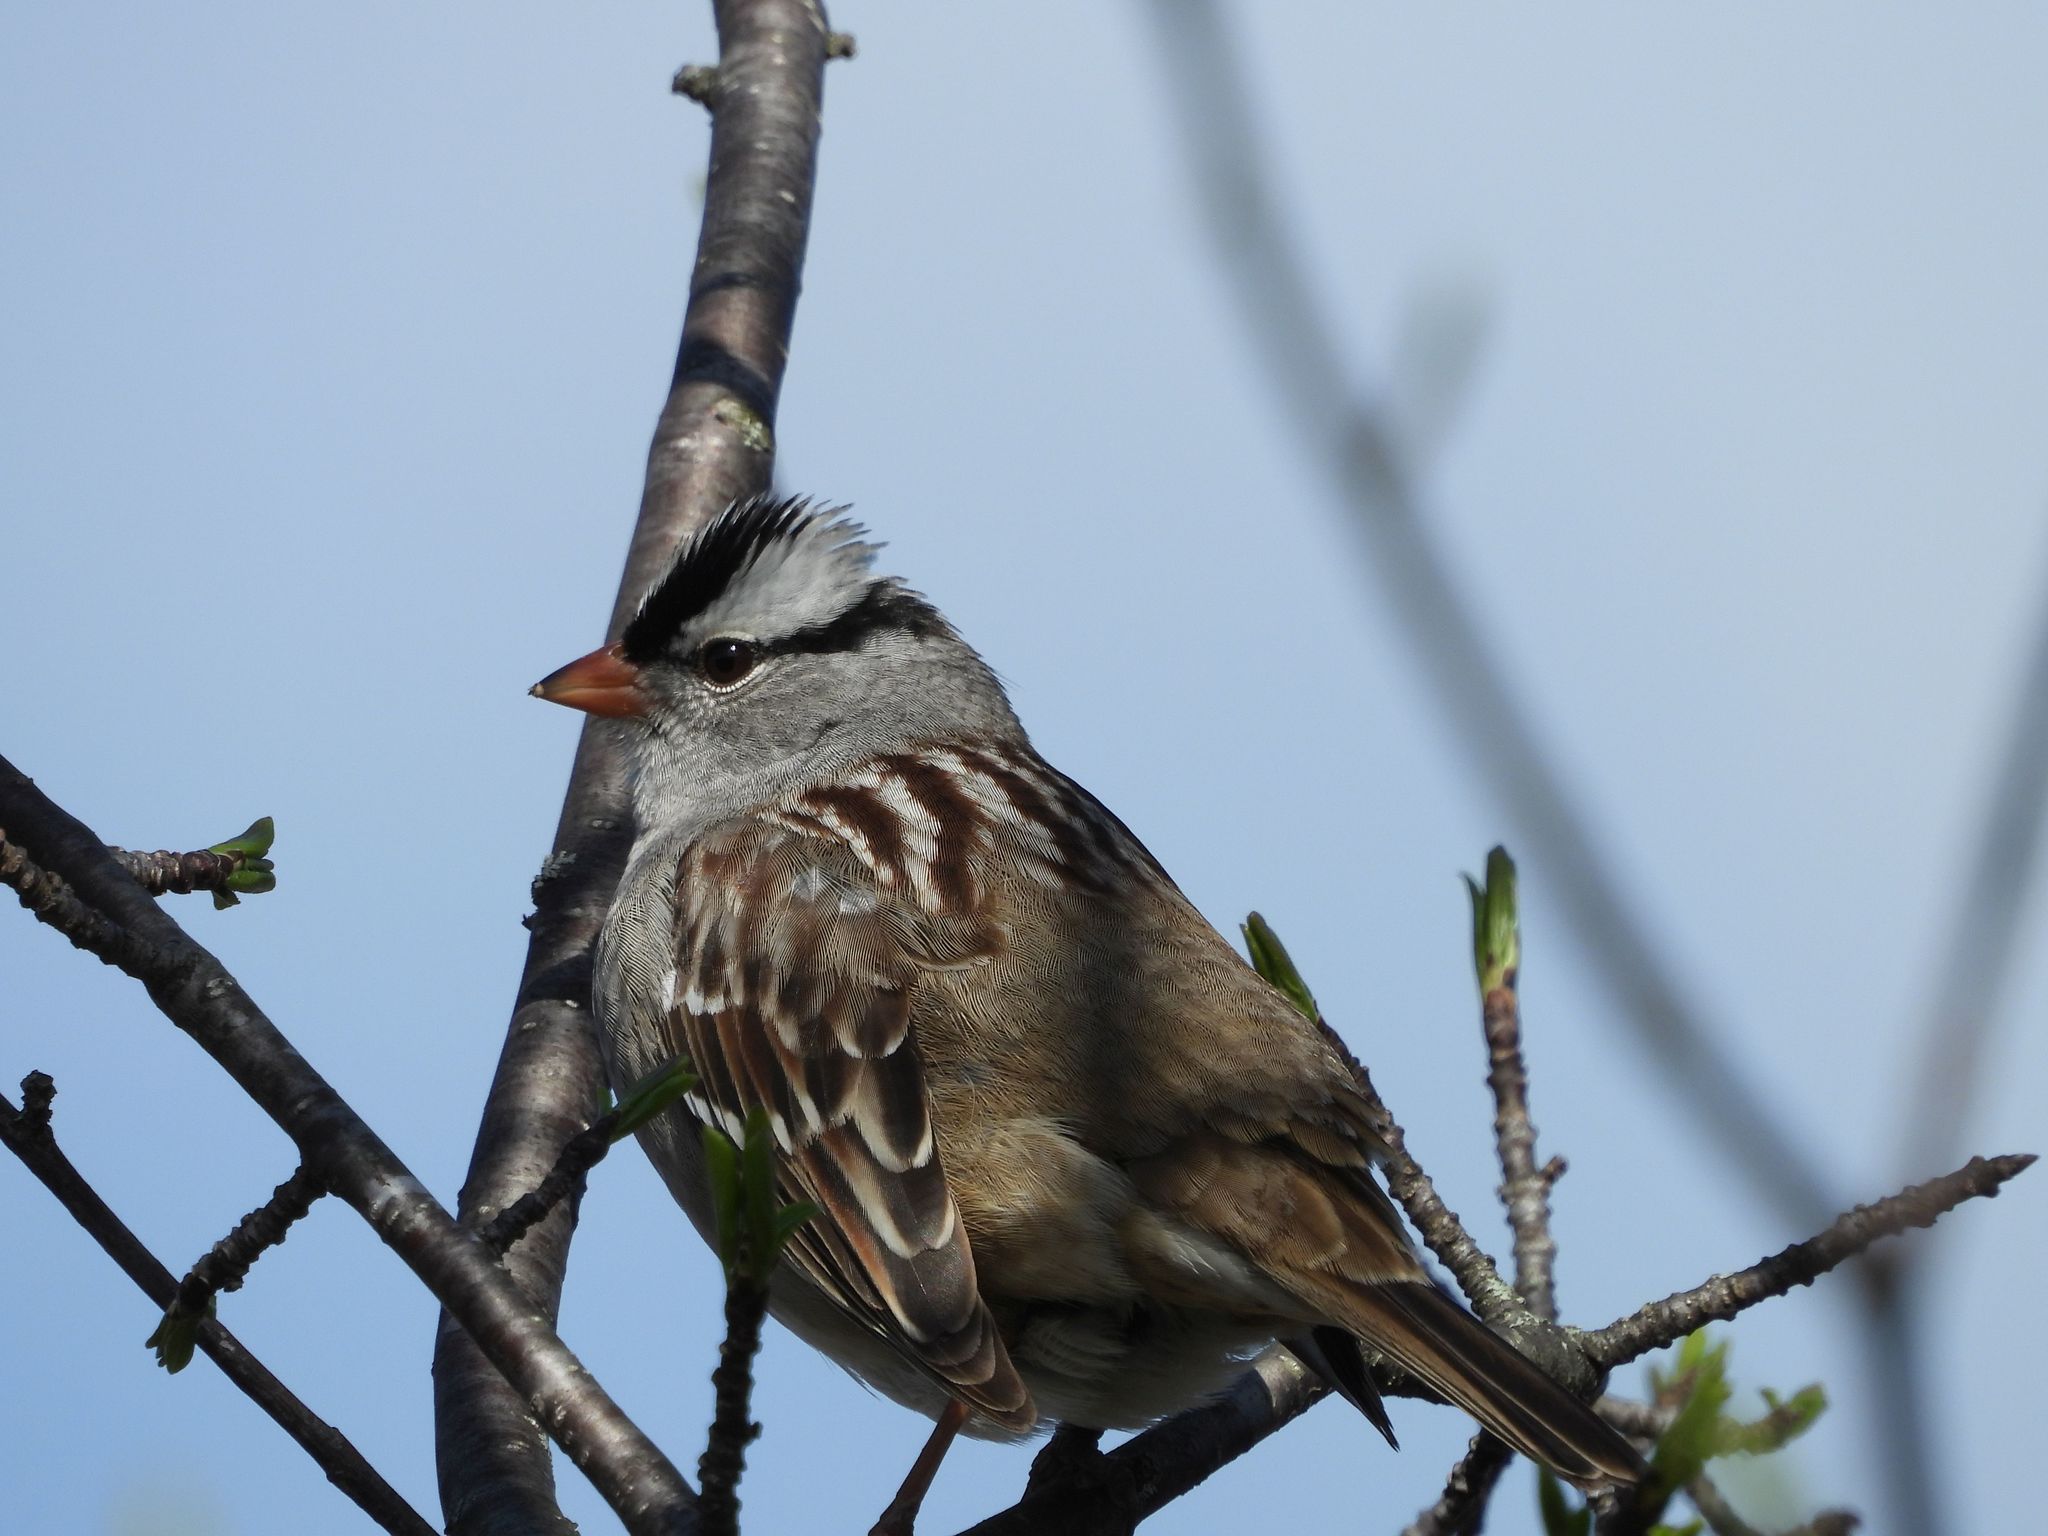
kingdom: Animalia
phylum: Chordata
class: Aves
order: Passeriformes
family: Passerellidae
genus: Zonotrichia
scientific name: Zonotrichia leucophrys
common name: White-crowned sparrow
